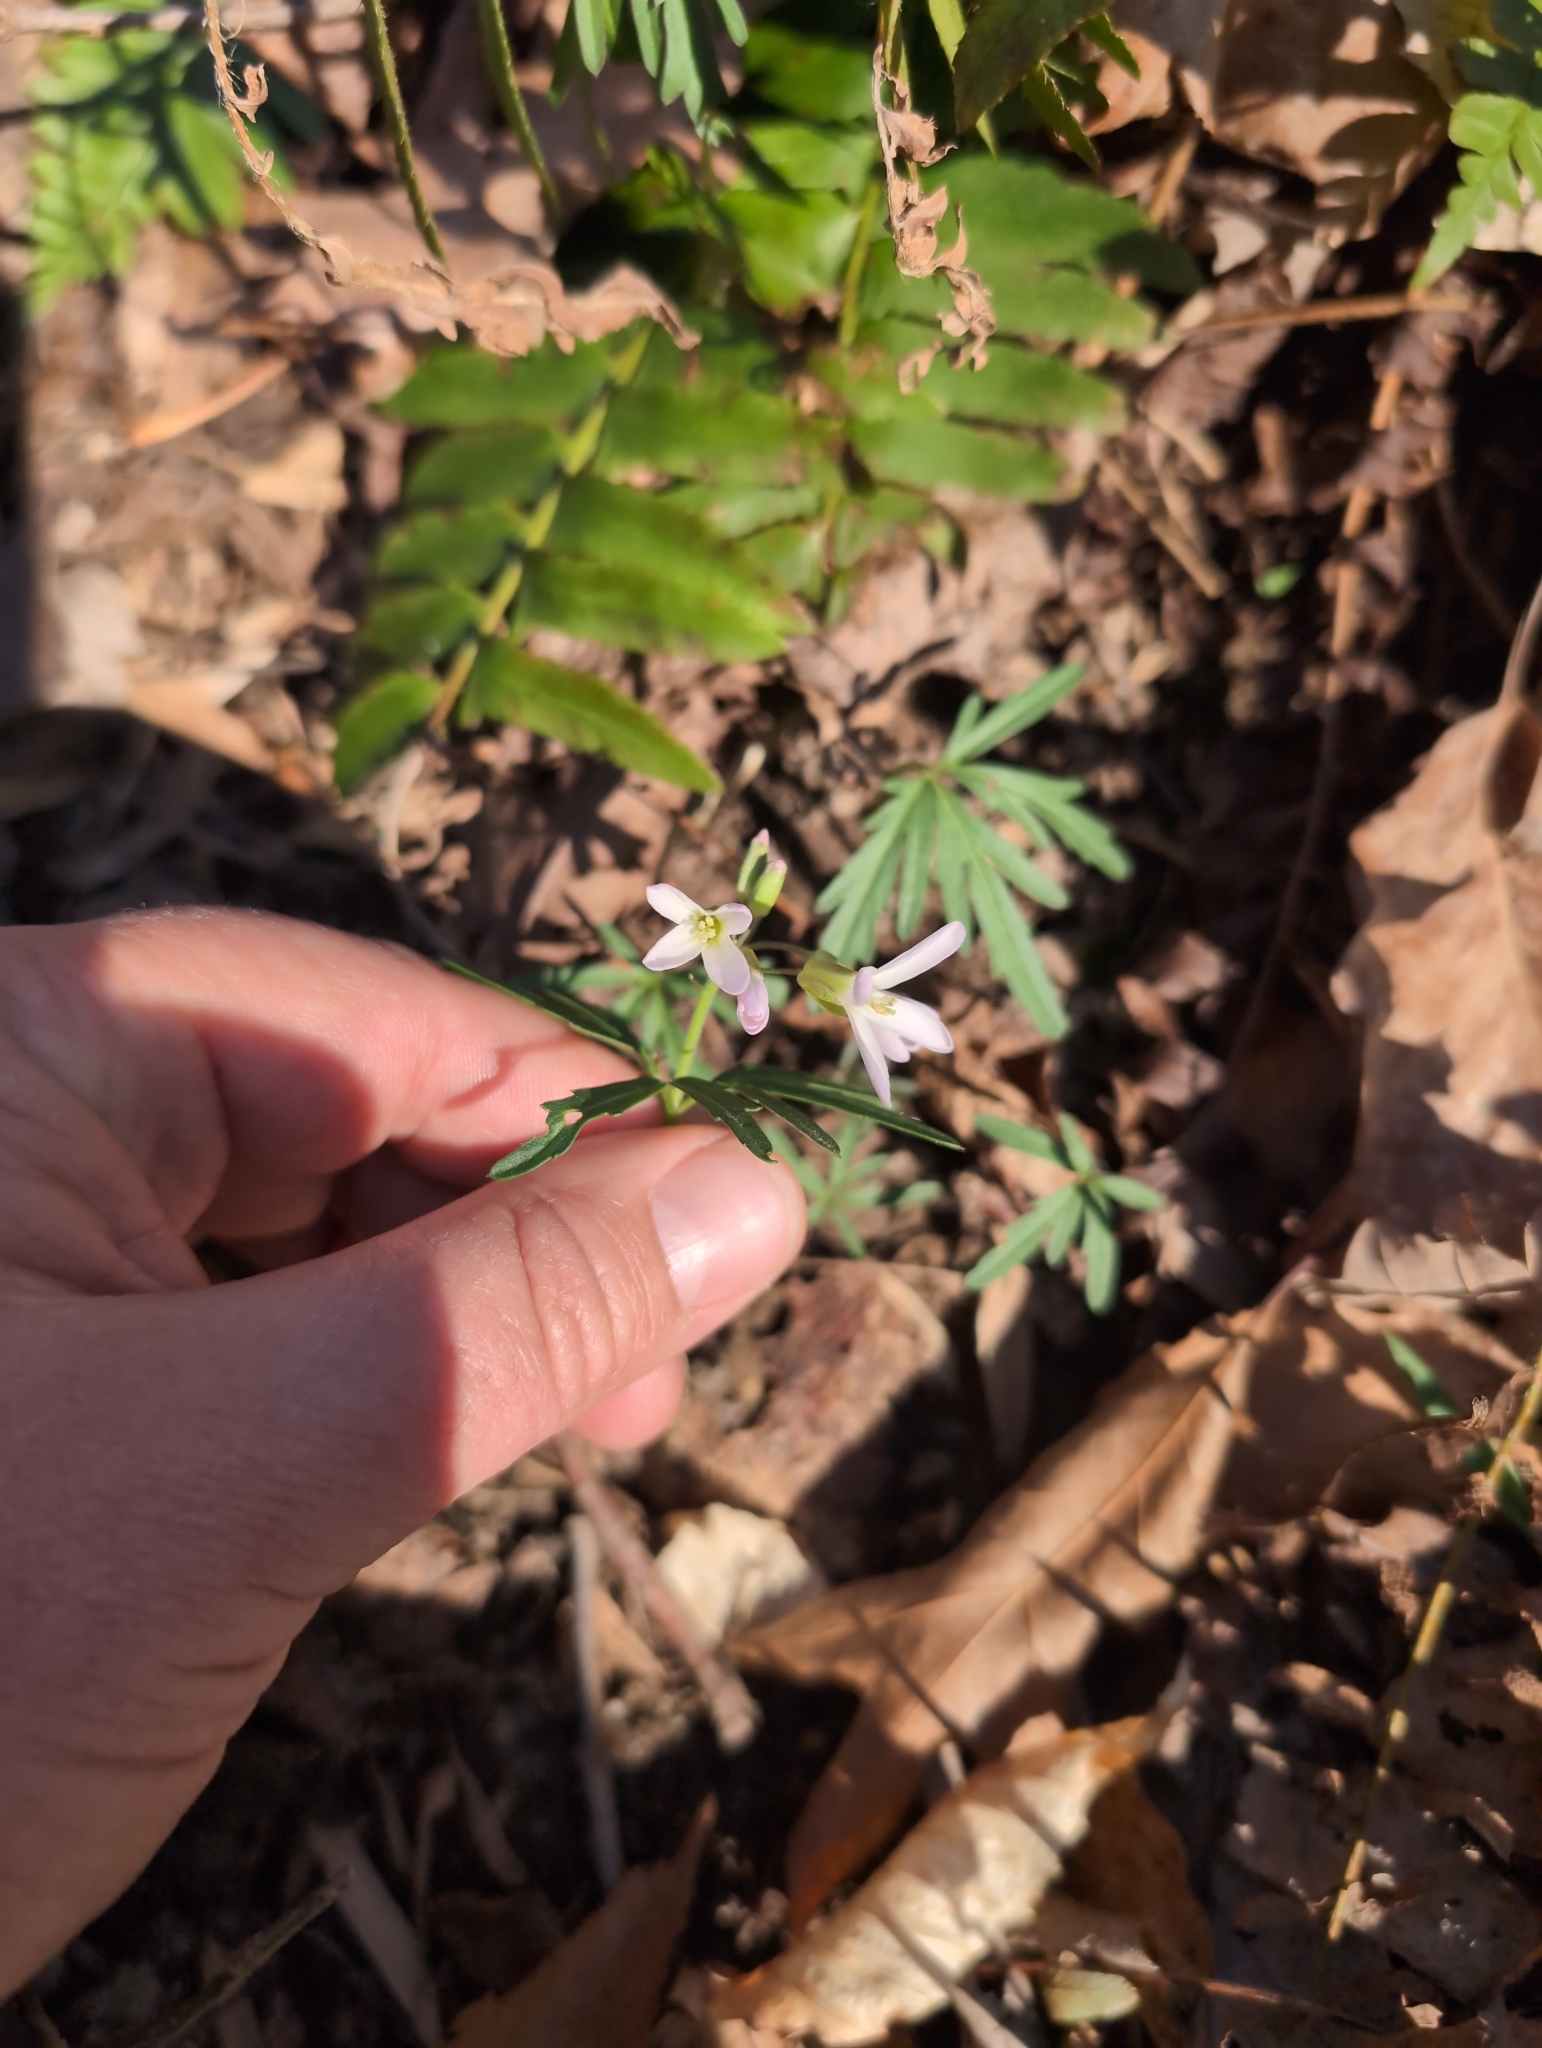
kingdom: Plantae
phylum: Tracheophyta
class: Magnoliopsida
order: Brassicales
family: Brassicaceae
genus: Cardamine
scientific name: Cardamine concatenata
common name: Cut-leaf toothcup
